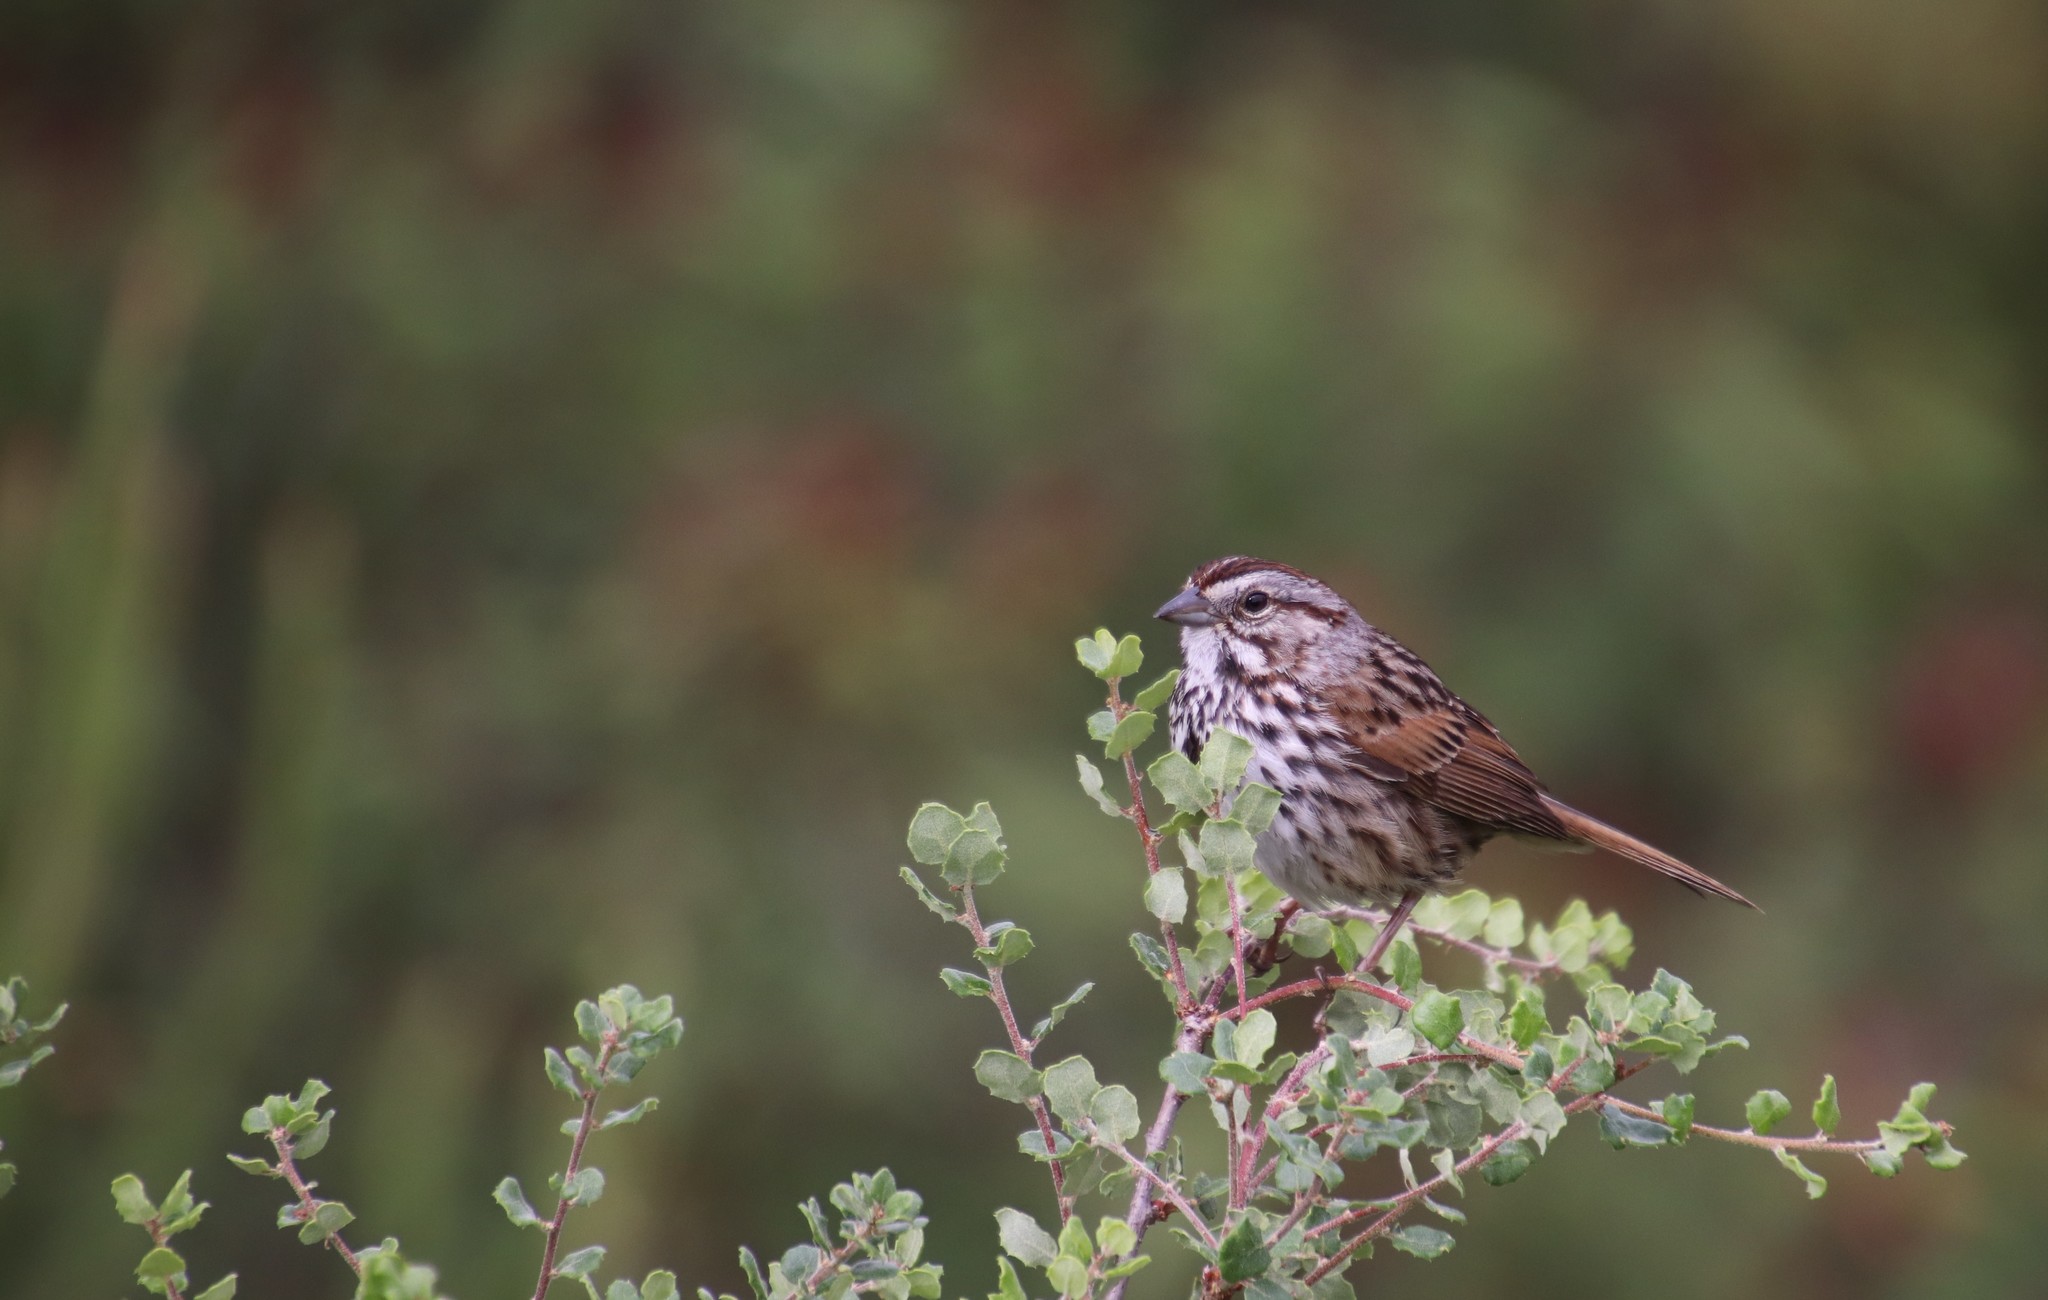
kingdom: Animalia
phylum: Chordata
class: Aves
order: Passeriformes
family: Passerellidae
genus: Melospiza
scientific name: Melospiza melodia
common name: Song sparrow
